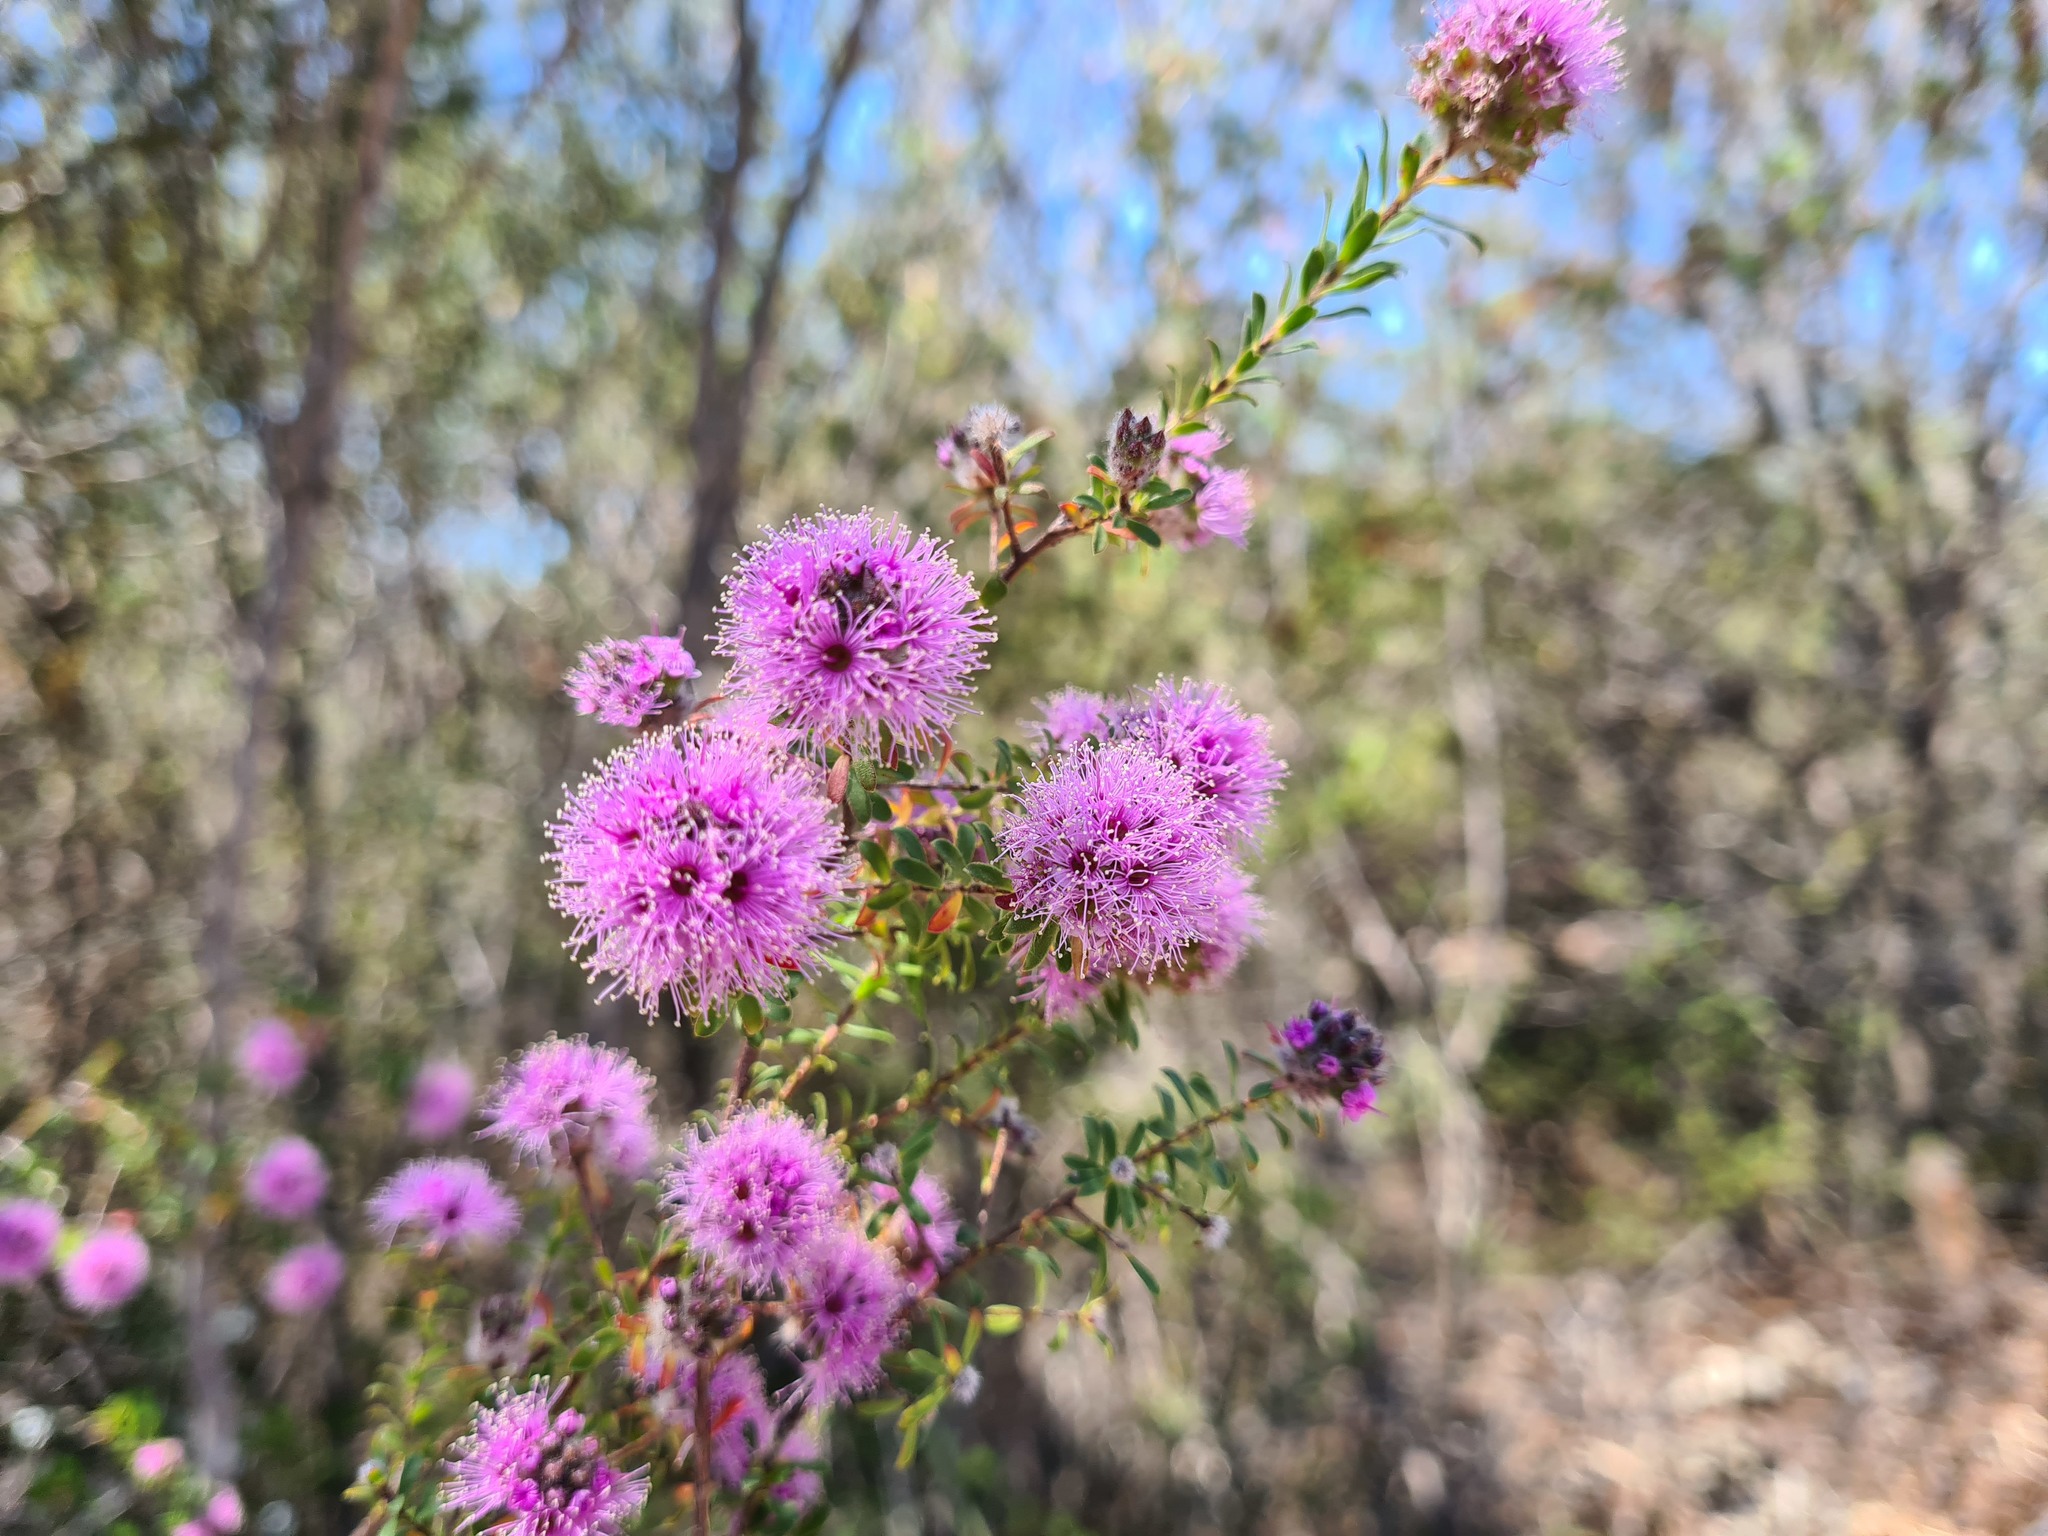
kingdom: Plantae
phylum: Tracheophyta
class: Magnoliopsida
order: Myrtales
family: Myrtaceae
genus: Kunzea
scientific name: Kunzea capitata
